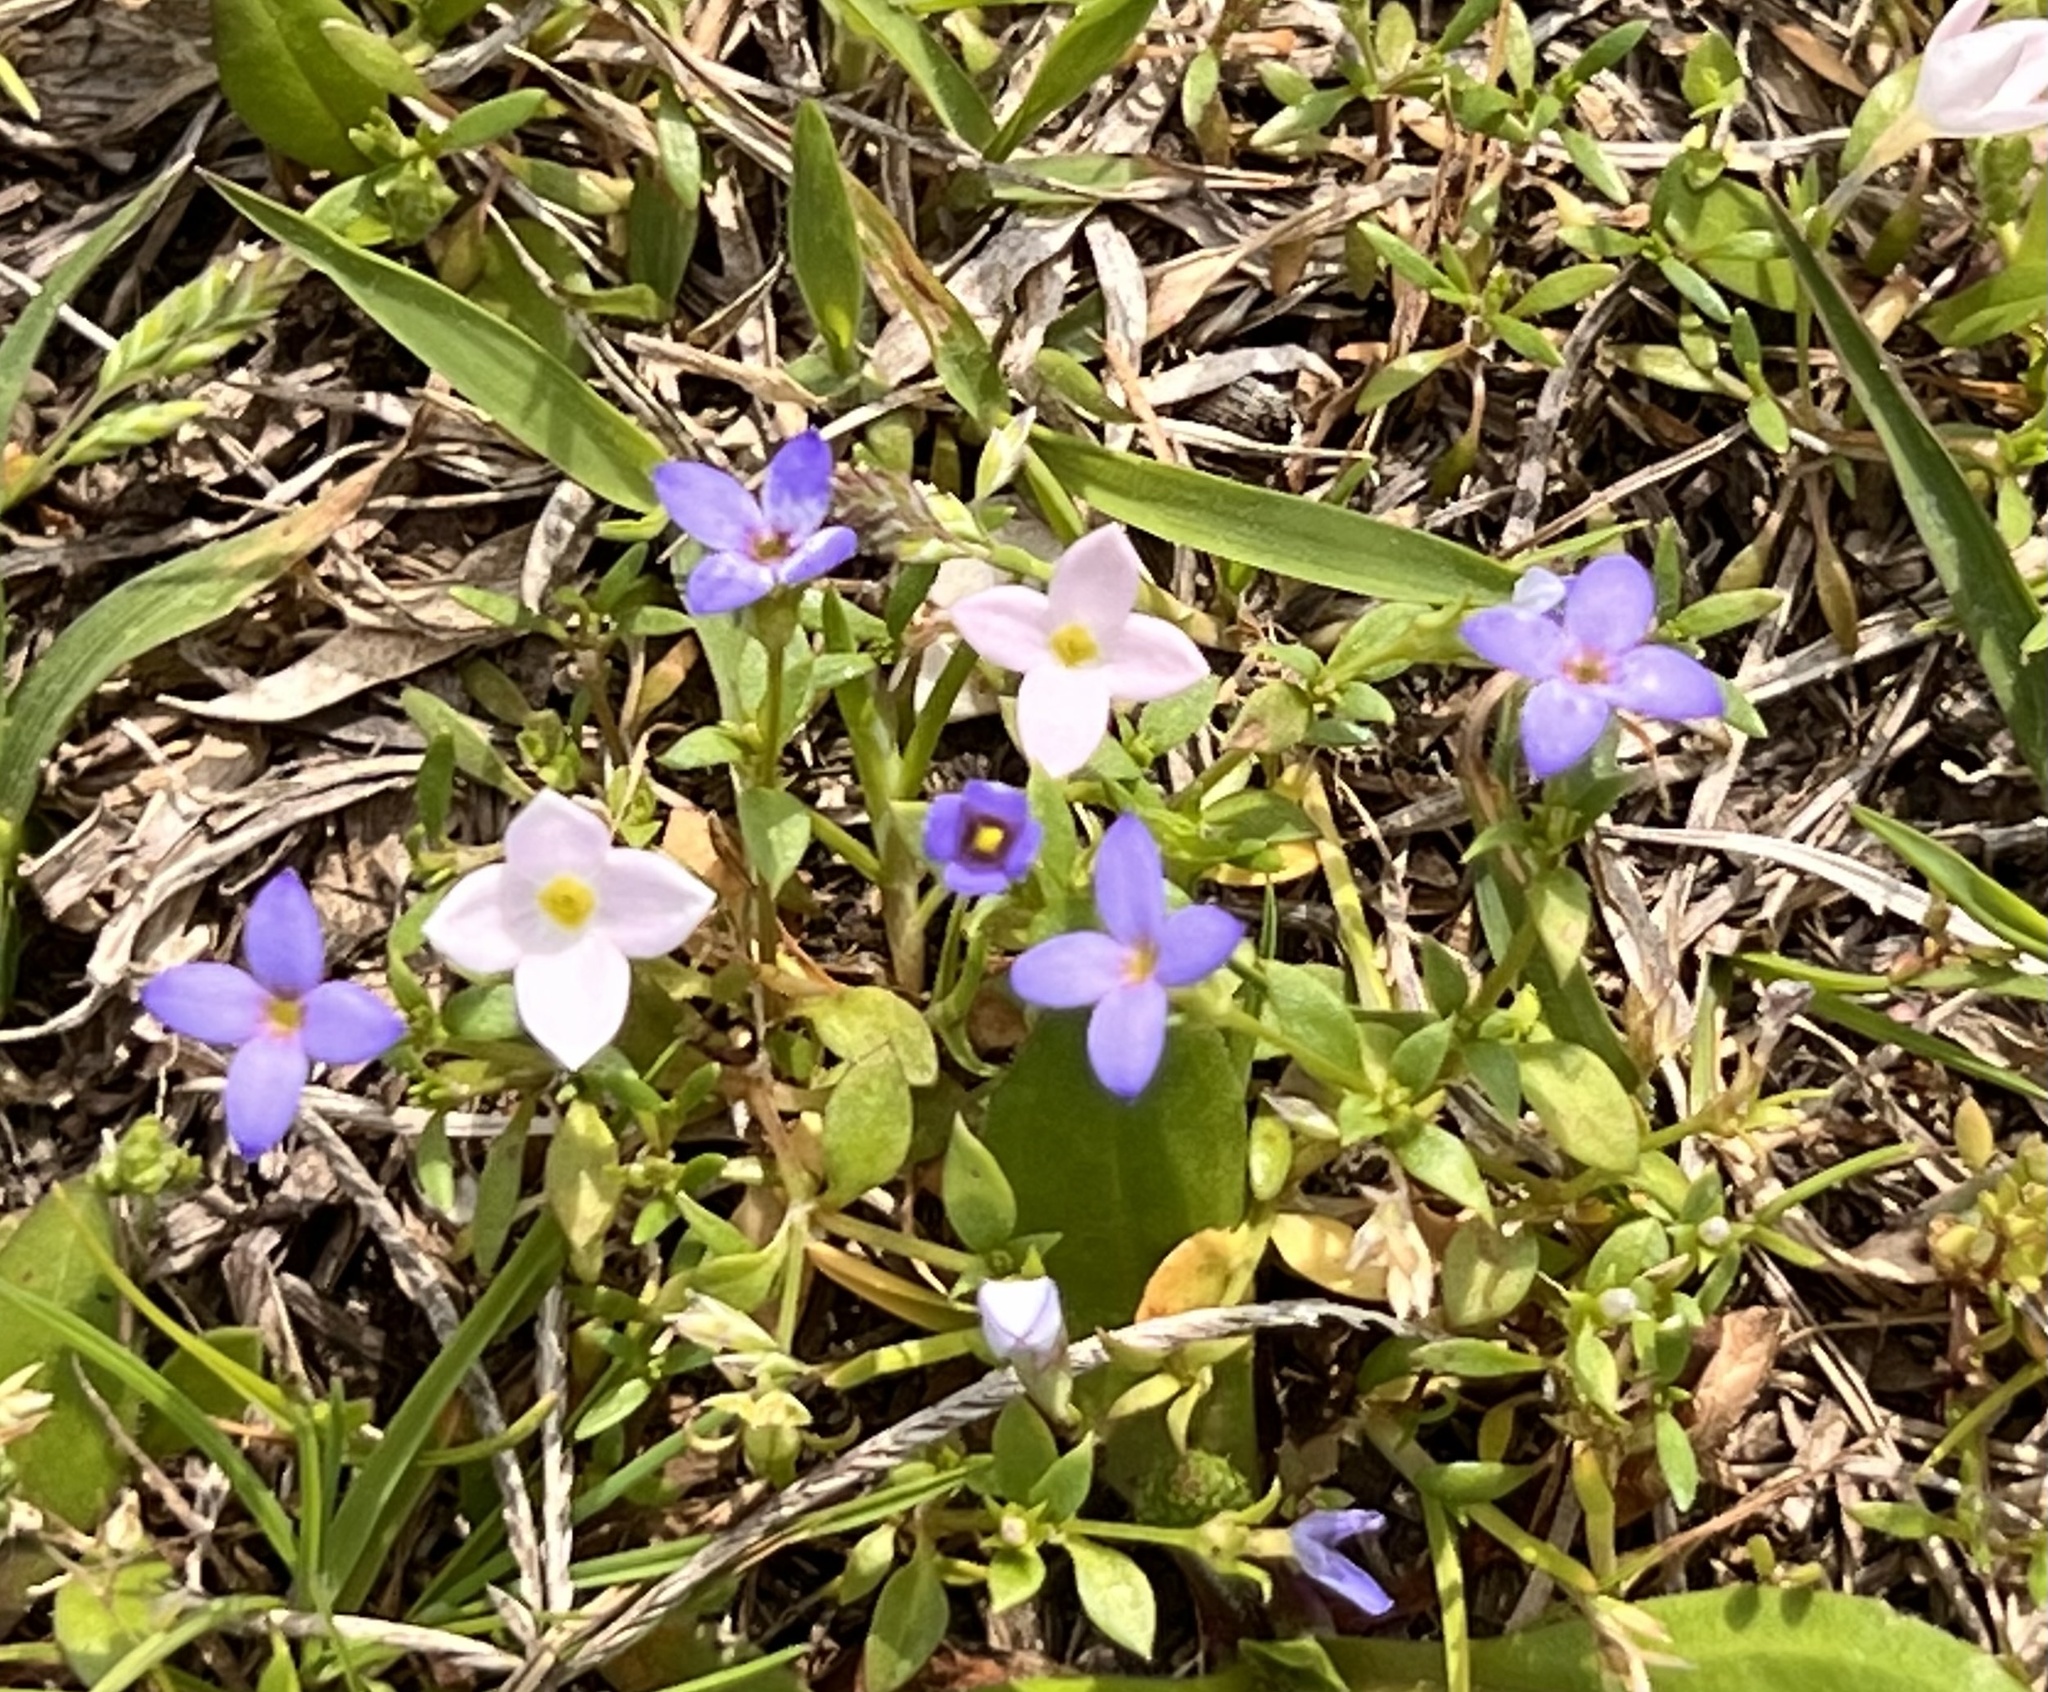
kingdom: Plantae
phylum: Tracheophyta
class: Magnoliopsida
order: Gentianales
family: Rubiaceae
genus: Houstonia
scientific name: Houstonia pusilla
